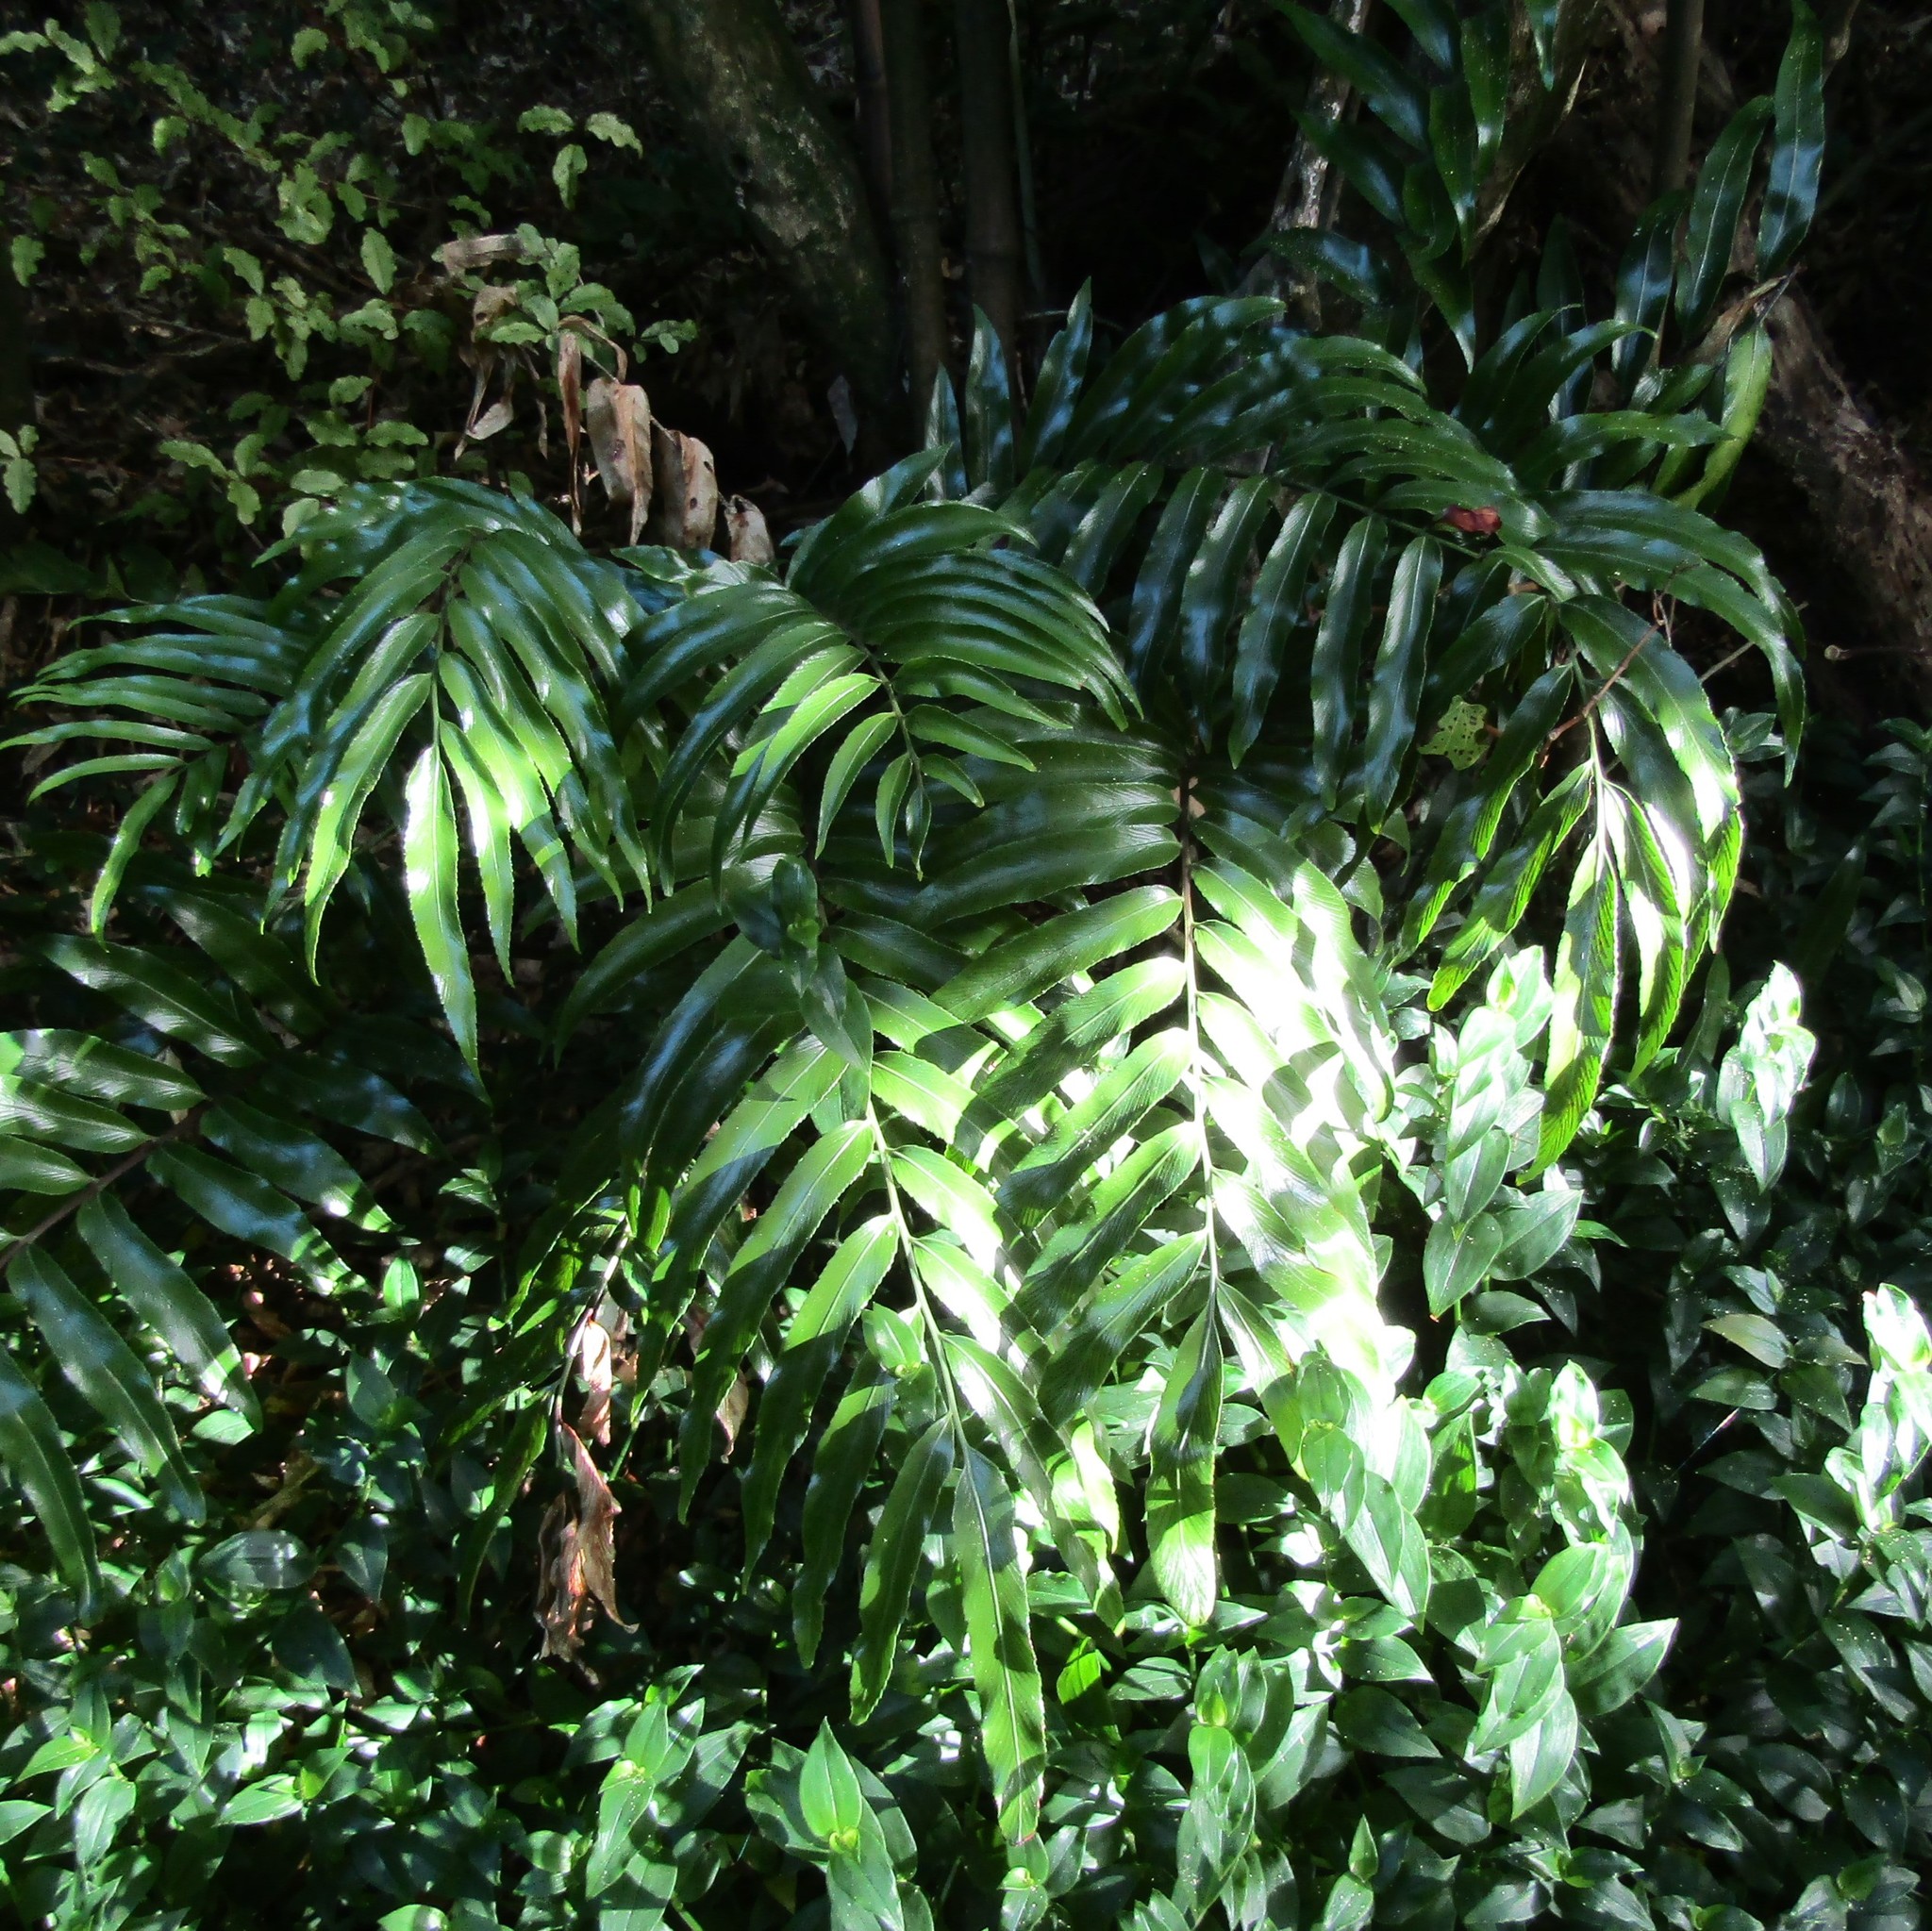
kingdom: Plantae
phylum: Tracheophyta
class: Polypodiopsida
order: Polypodiales
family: Aspleniaceae
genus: Asplenium
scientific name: Asplenium oblongifolium
